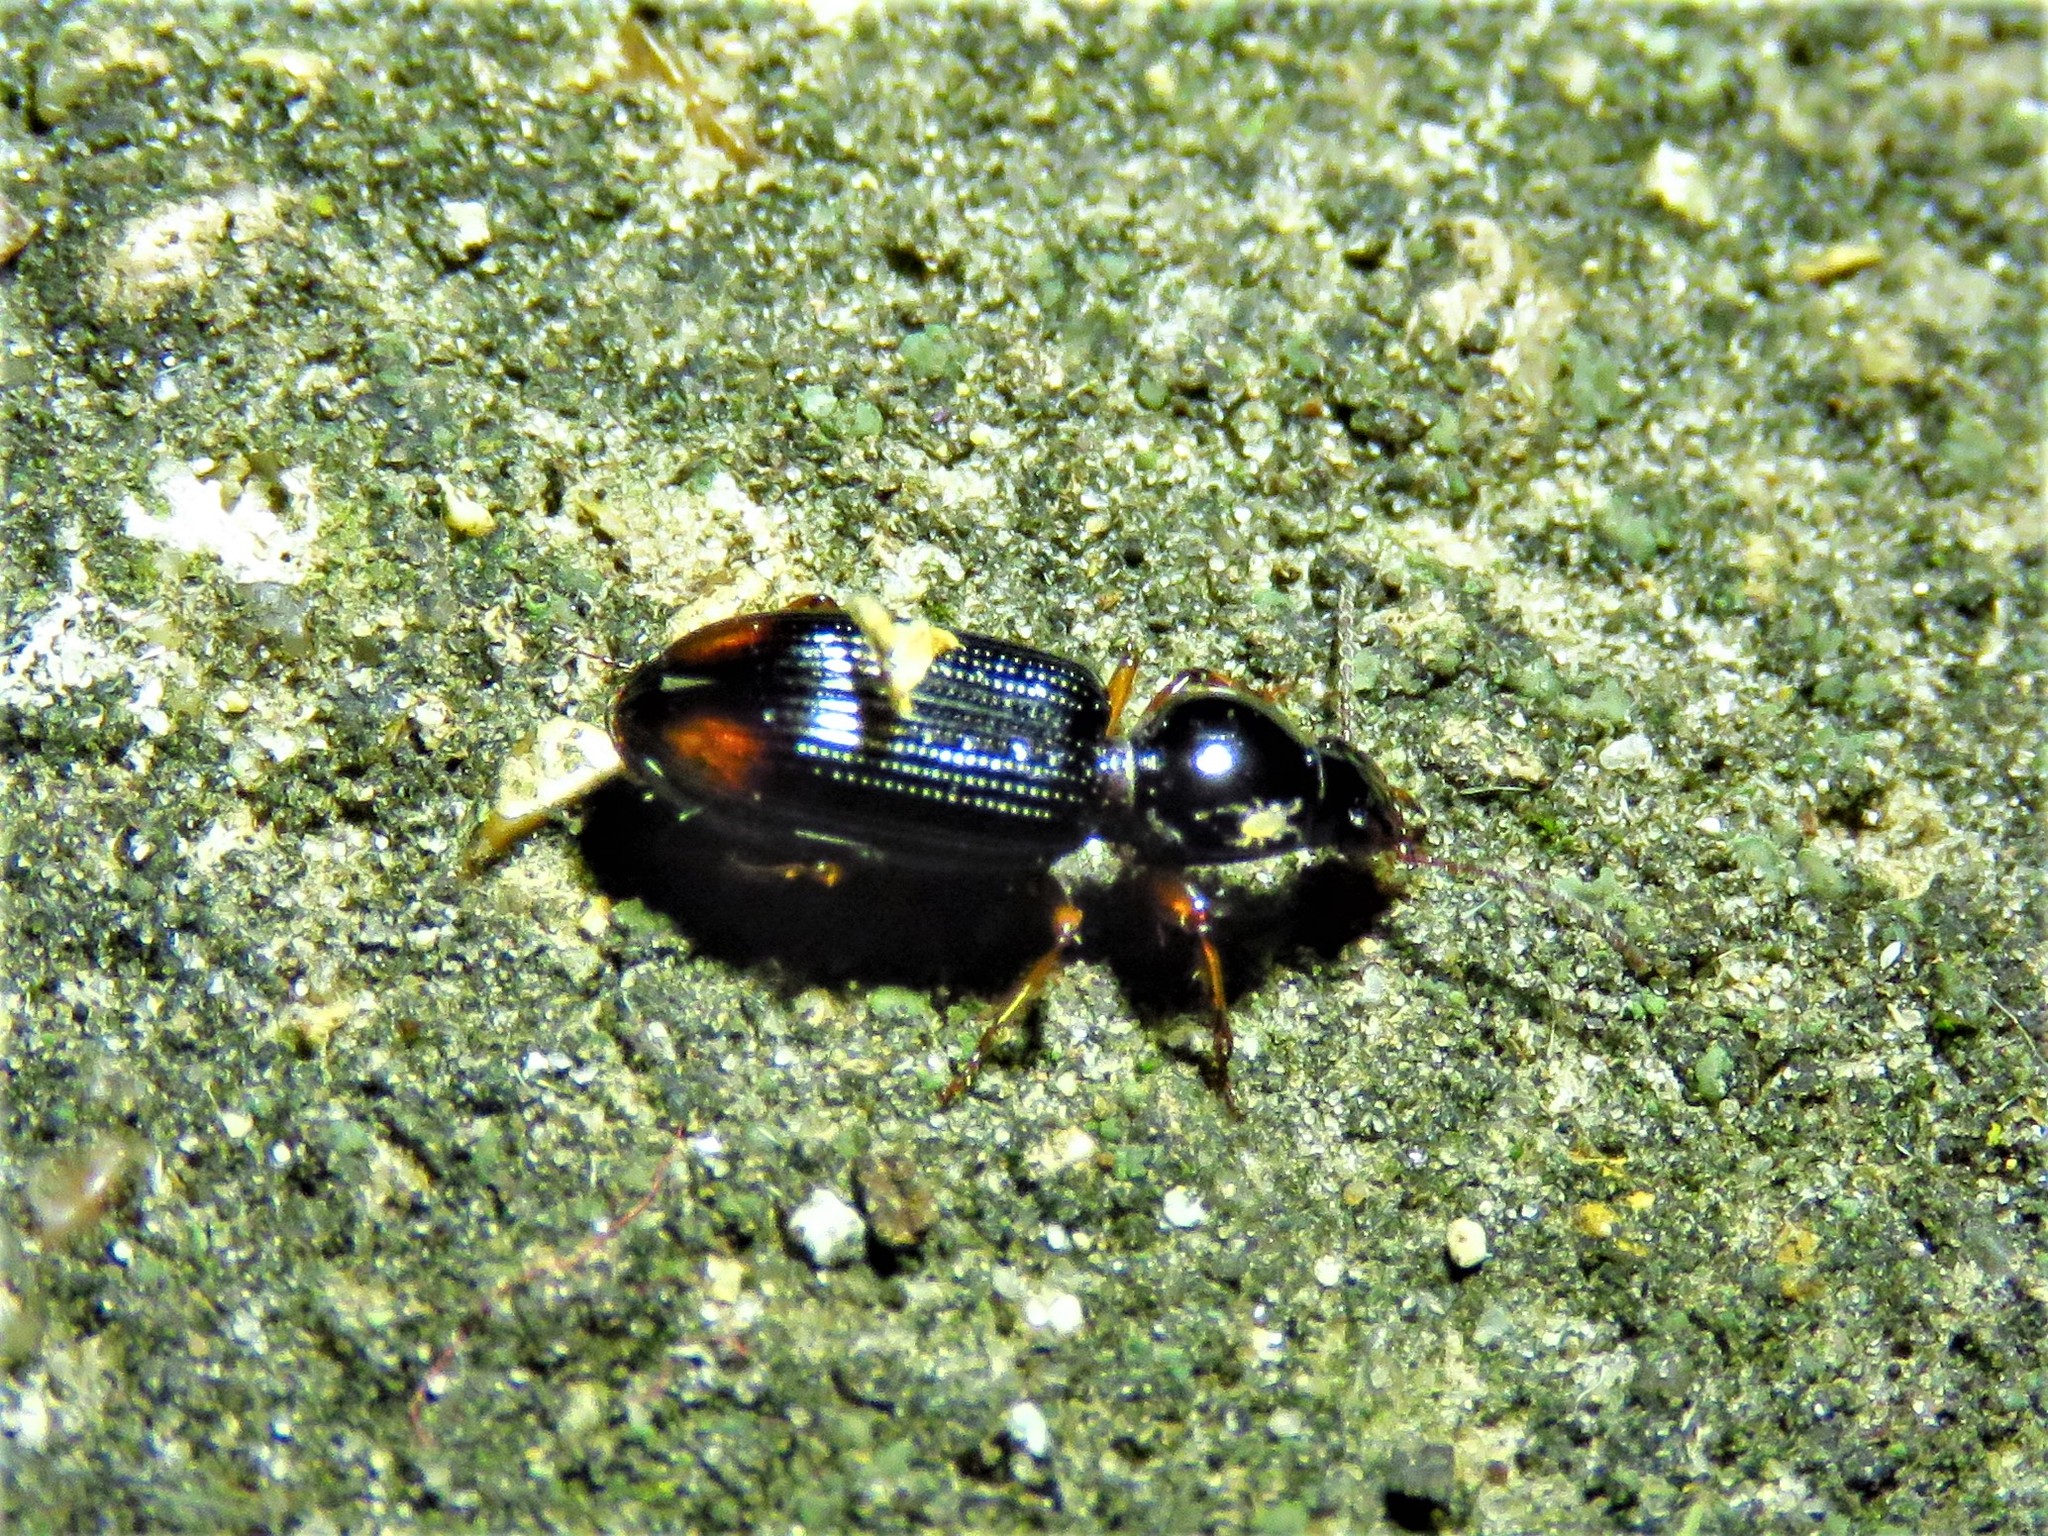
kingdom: Animalia
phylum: Arthropoda
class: Insecta
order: Coleoptera
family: Carabidae
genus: Aspidoglossa
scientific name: Aspidoglossa subangulata
